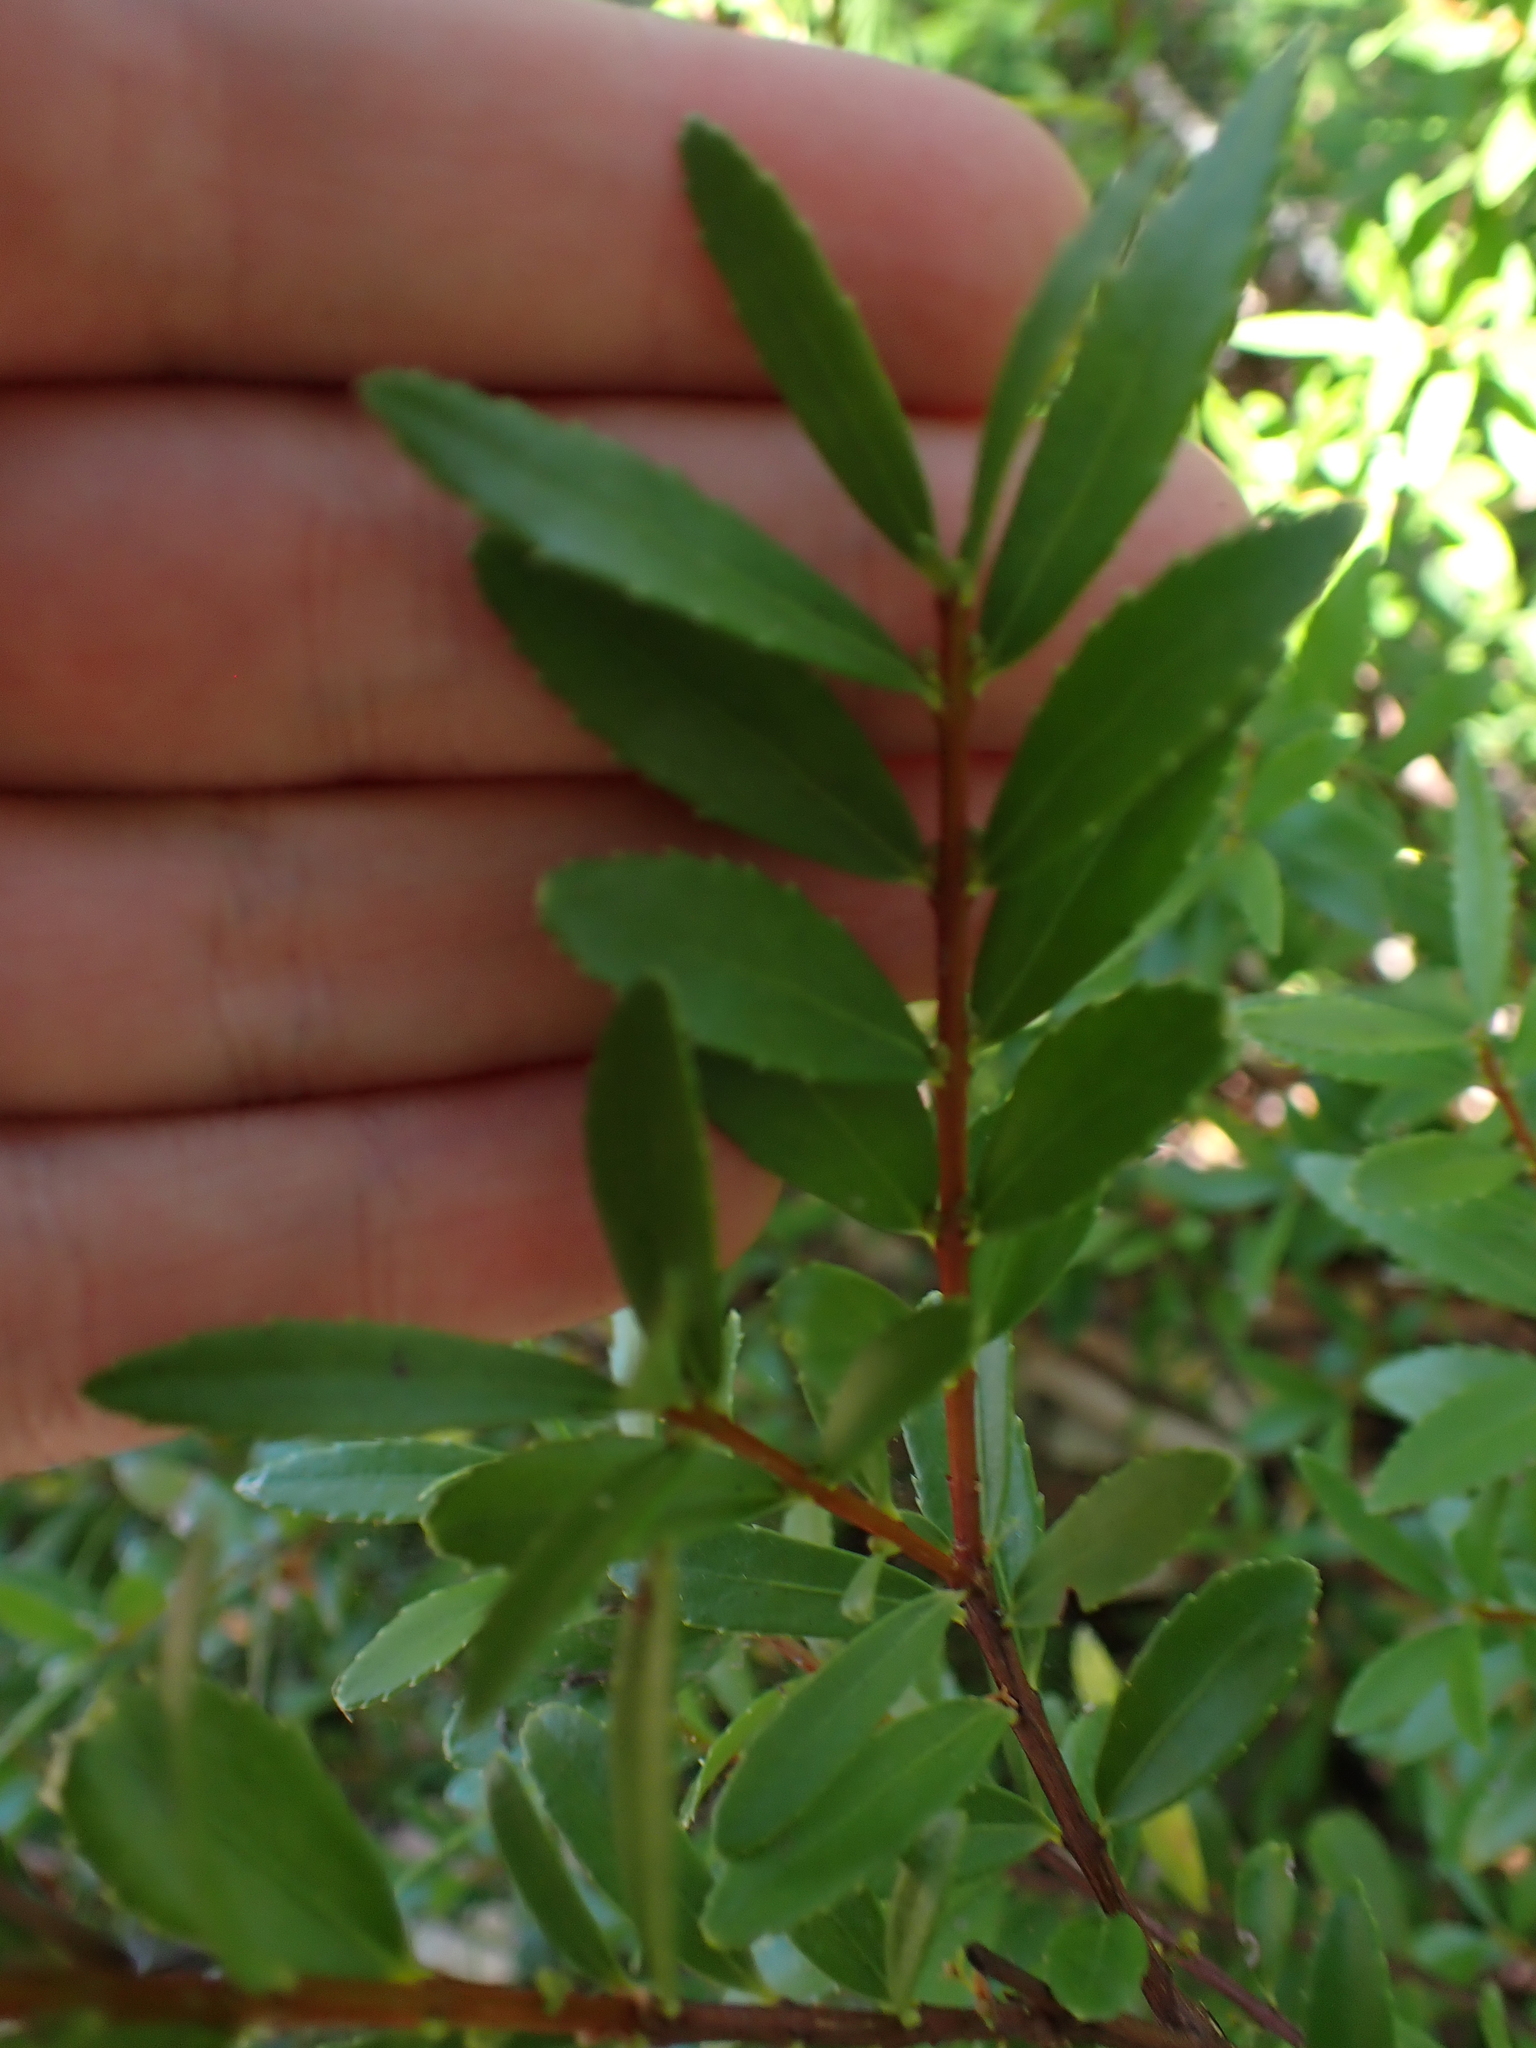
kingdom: Plantae
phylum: Tracheophyta
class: Magnoliopsida
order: Celastrales
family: Celastraceae
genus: Paxistima
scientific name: Paxistima myrsinites
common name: Mountain-lover
